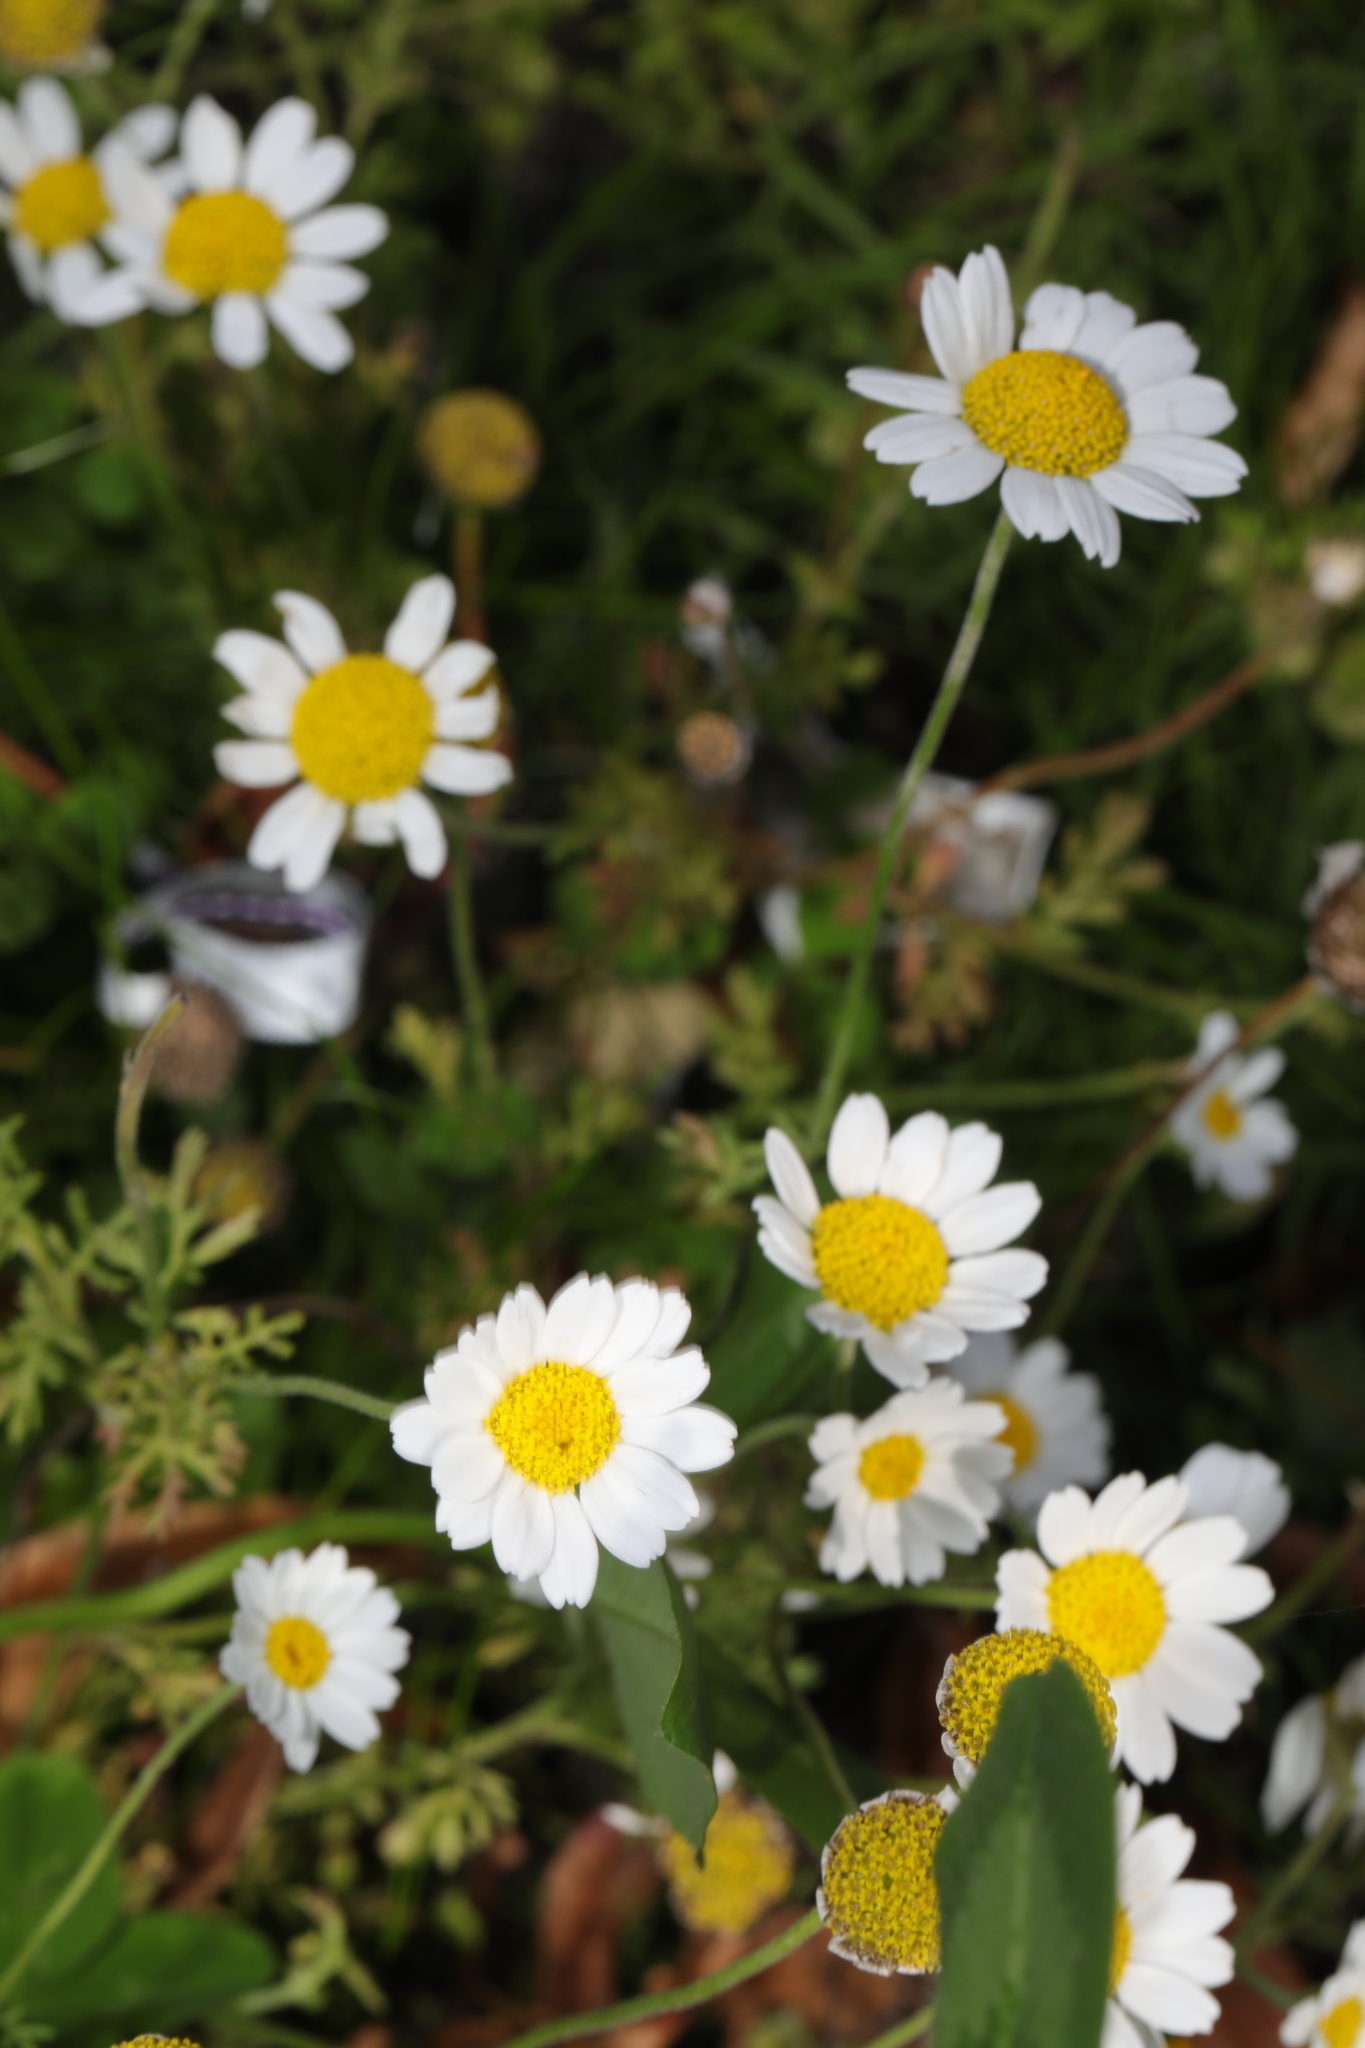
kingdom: Plantae
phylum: Tracheophyta
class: Magnoliopsida
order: Asterales
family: Asteraceae
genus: Cota
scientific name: Cota austriaca
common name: Austrian chamomile
